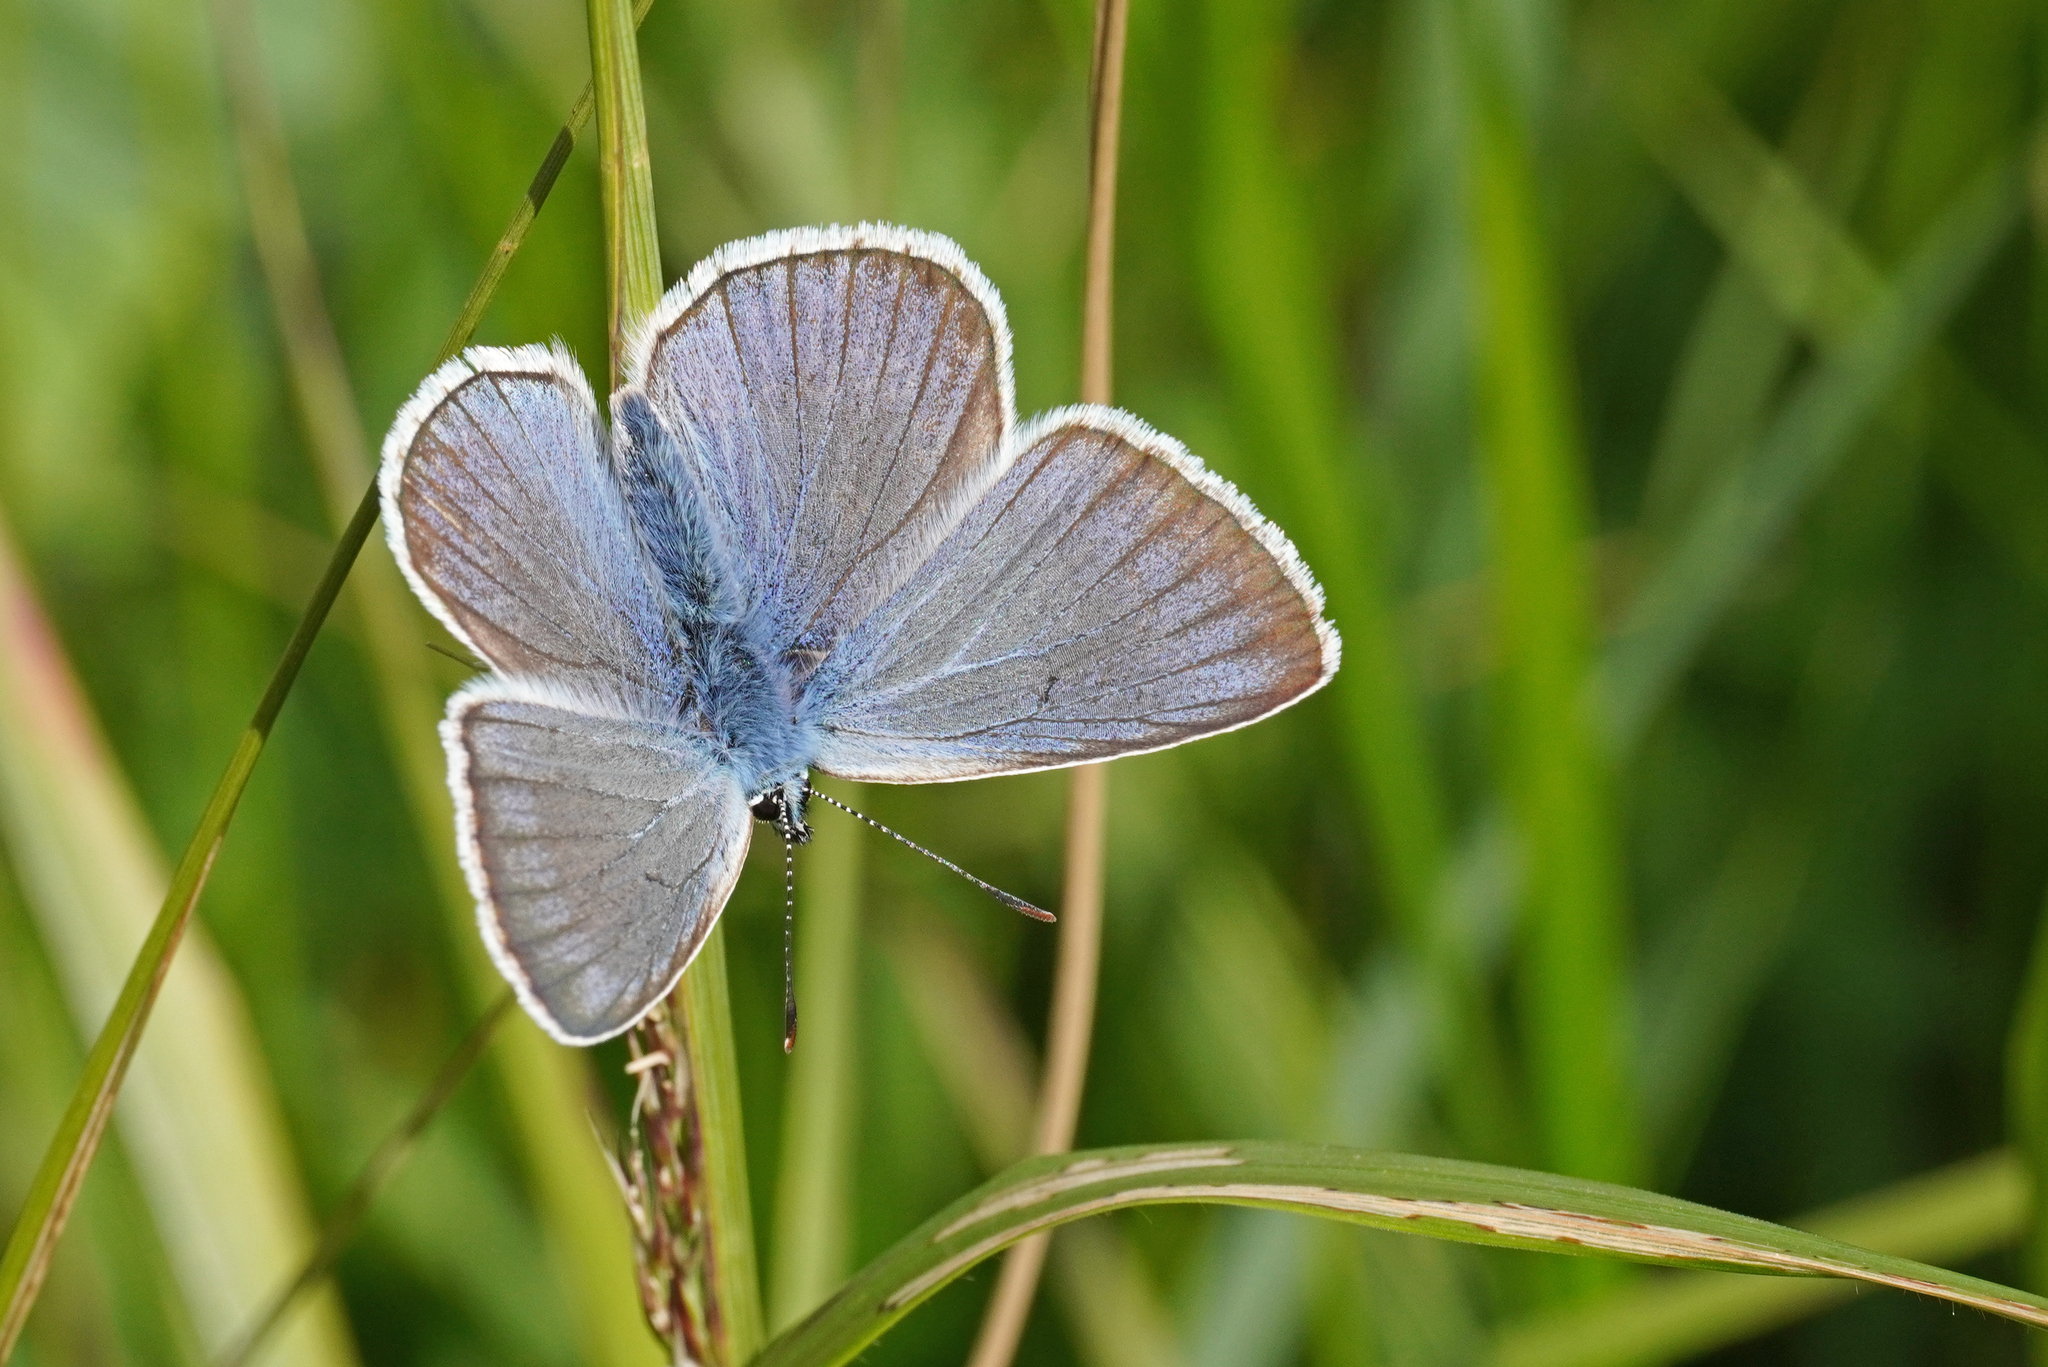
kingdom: Animalia
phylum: Arthropoda
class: Insecta
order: Lepidoptera
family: Lycaenidae
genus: Plebejus
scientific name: Plebejus amanda
